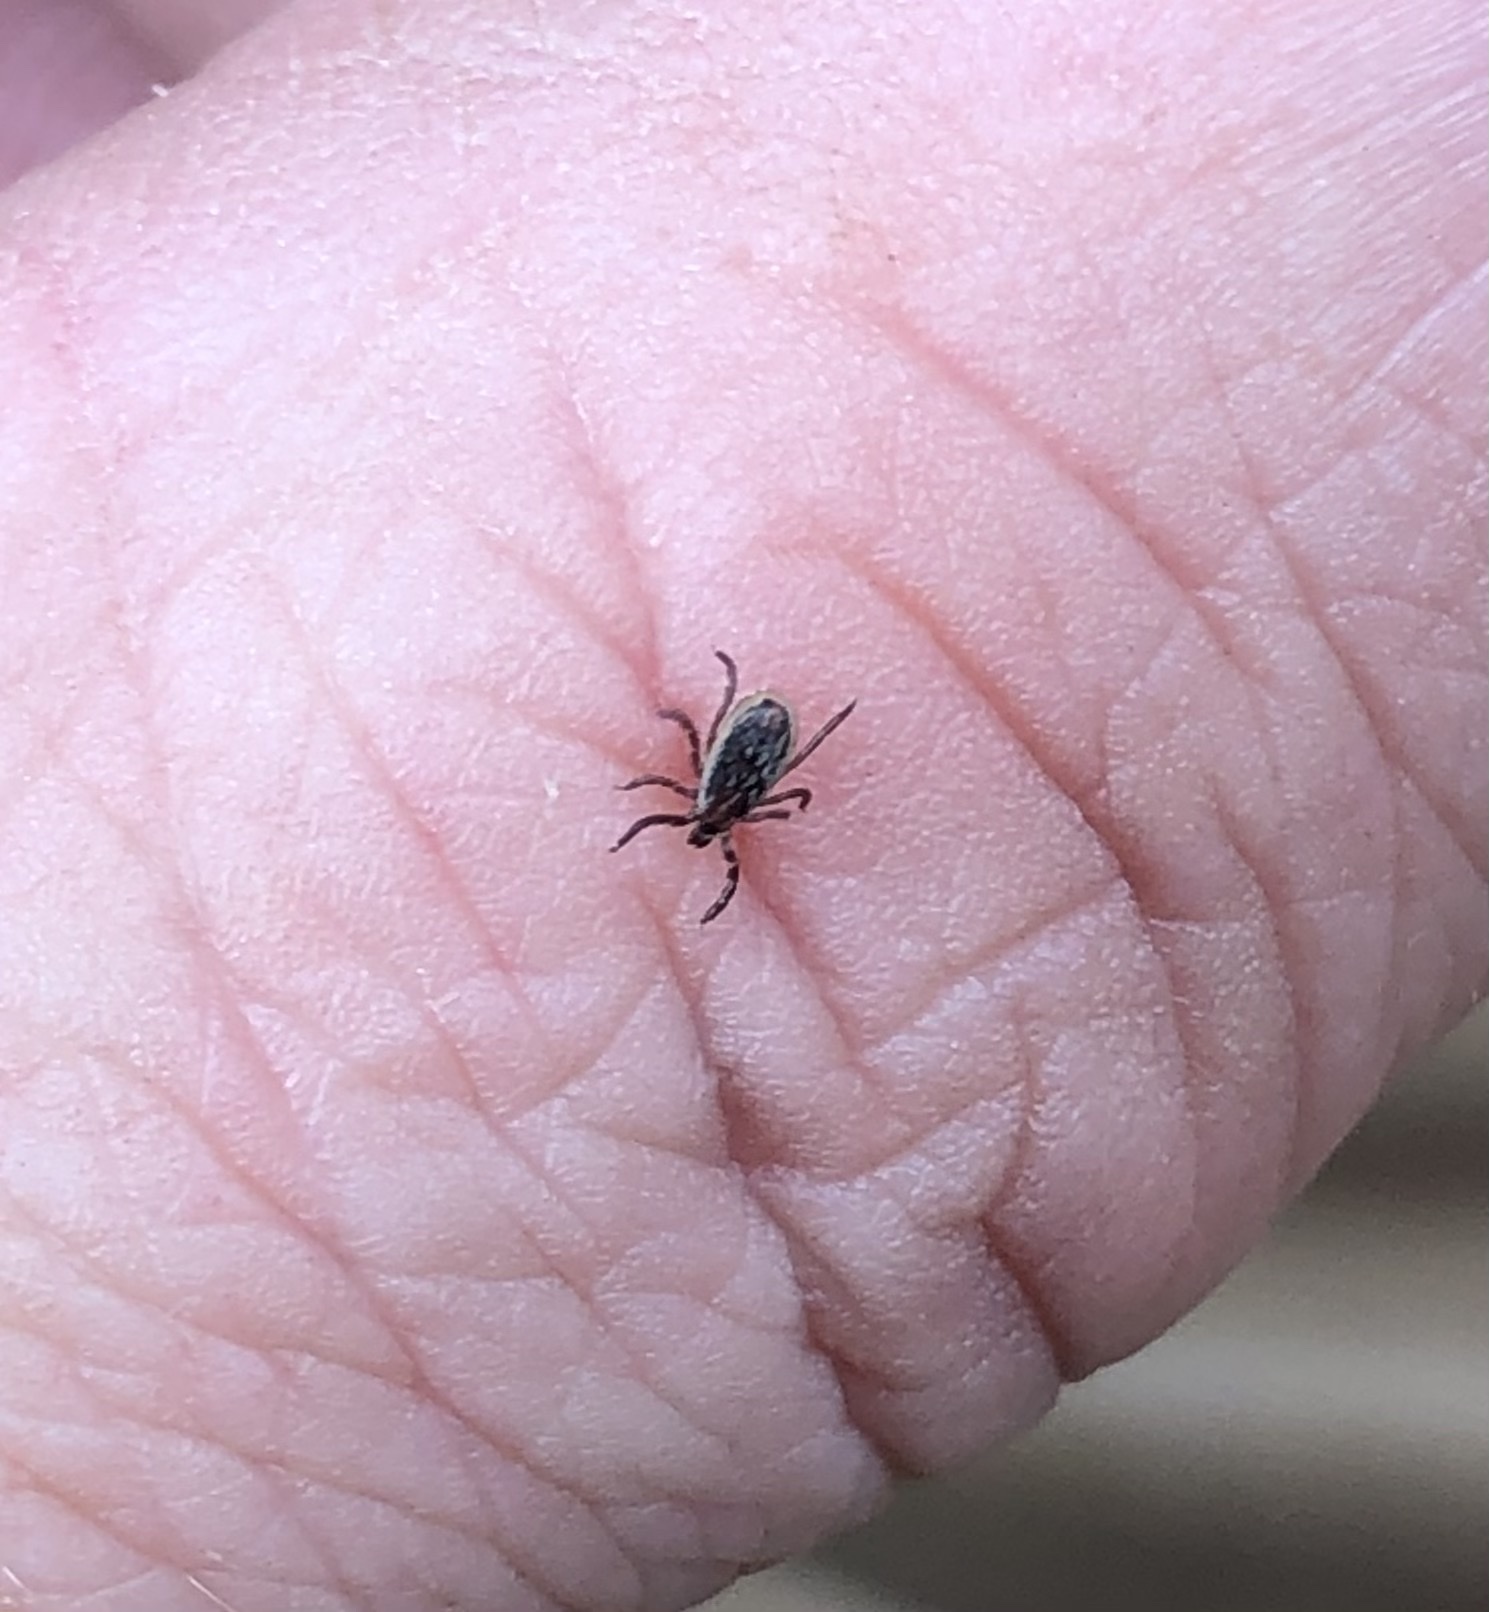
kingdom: Animalia
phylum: Arthropoda
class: Arachnida
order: Ixodida
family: Ixodidae
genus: Ixodes
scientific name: Ixodes scapularis
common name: Black legged tick
